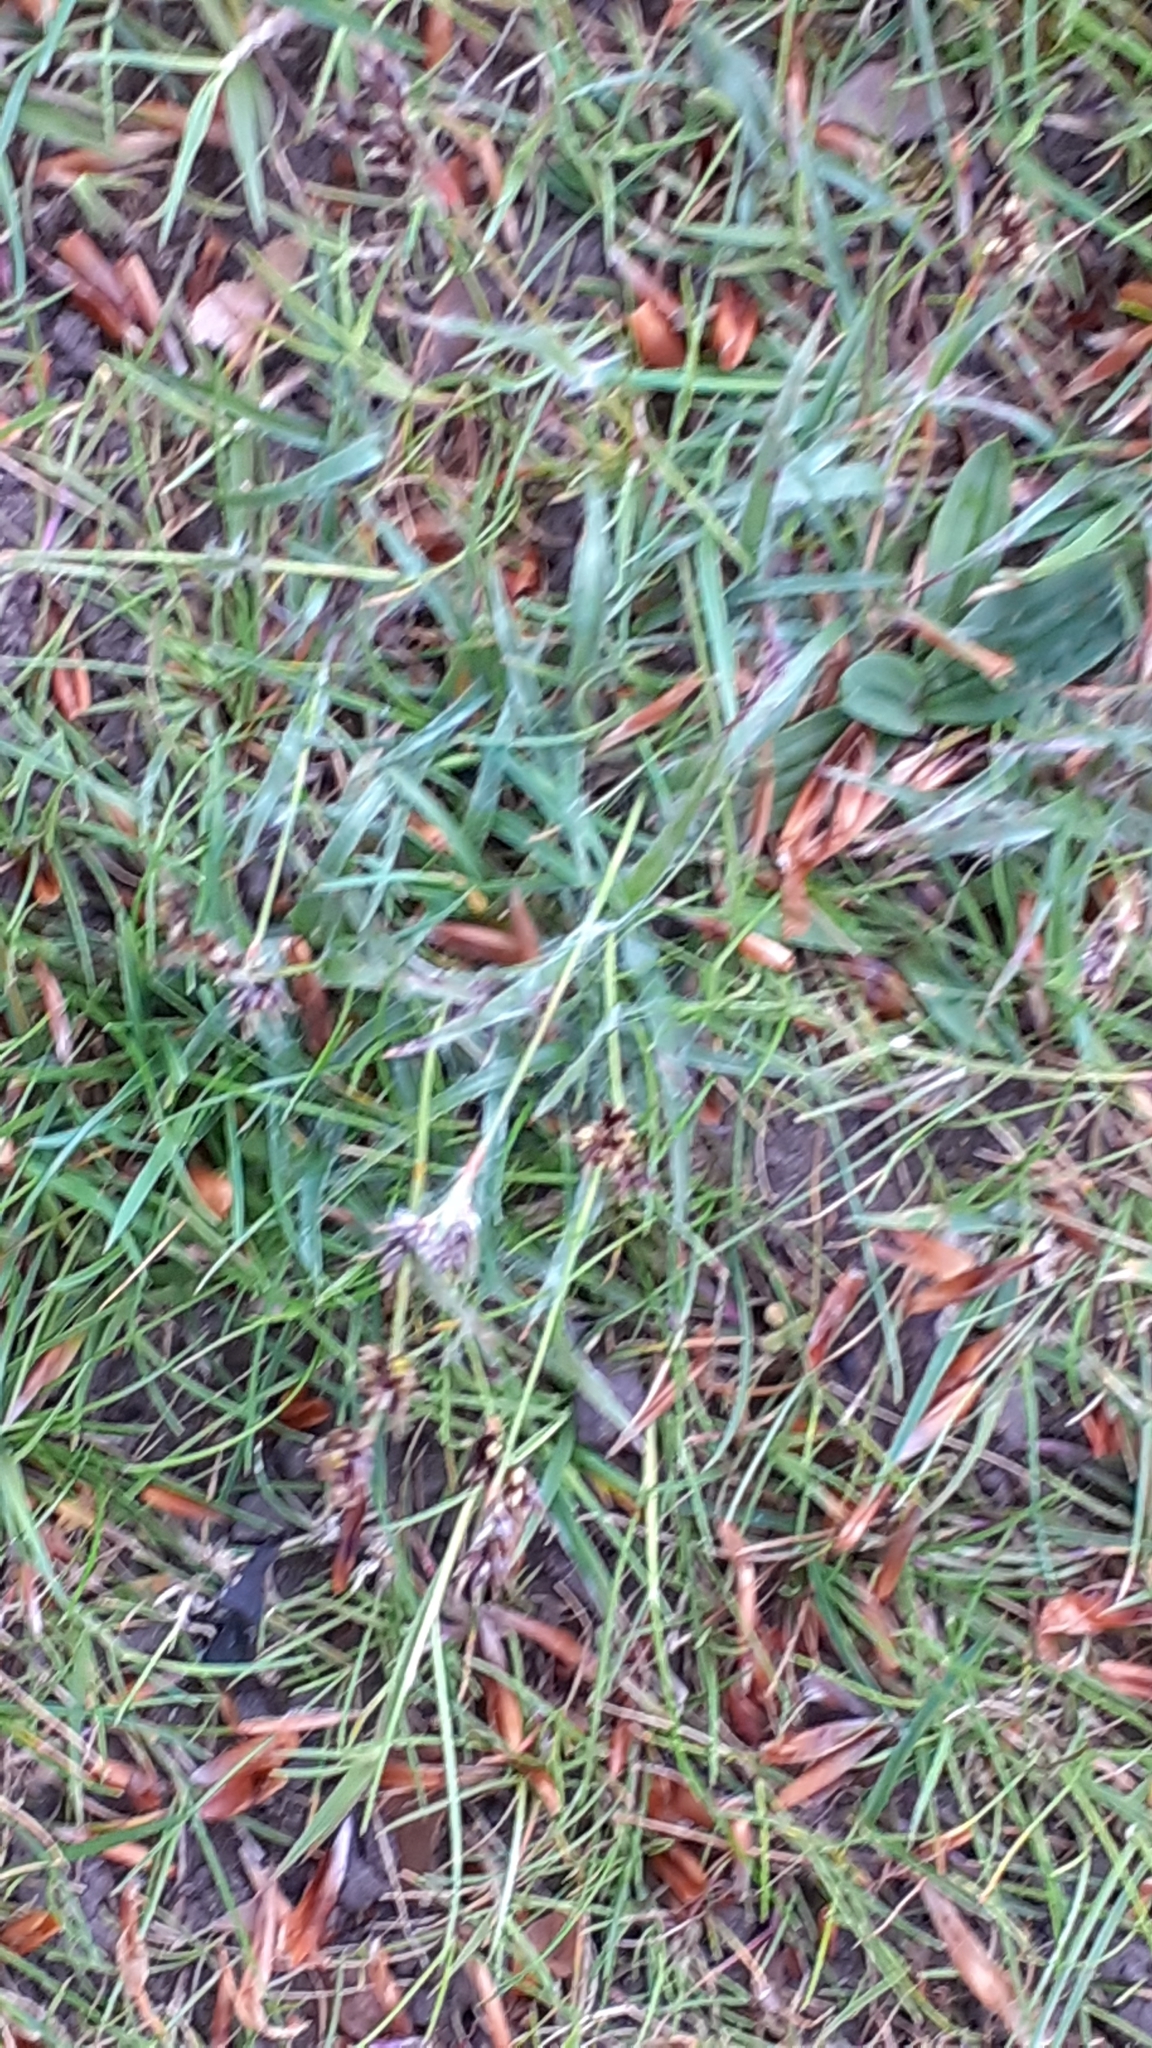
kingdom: Plantae
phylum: Tracheophyta
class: Liliopsida
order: Poales
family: Juncaceae
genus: Luzula
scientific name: Luzula campestris
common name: Field wood-rush
